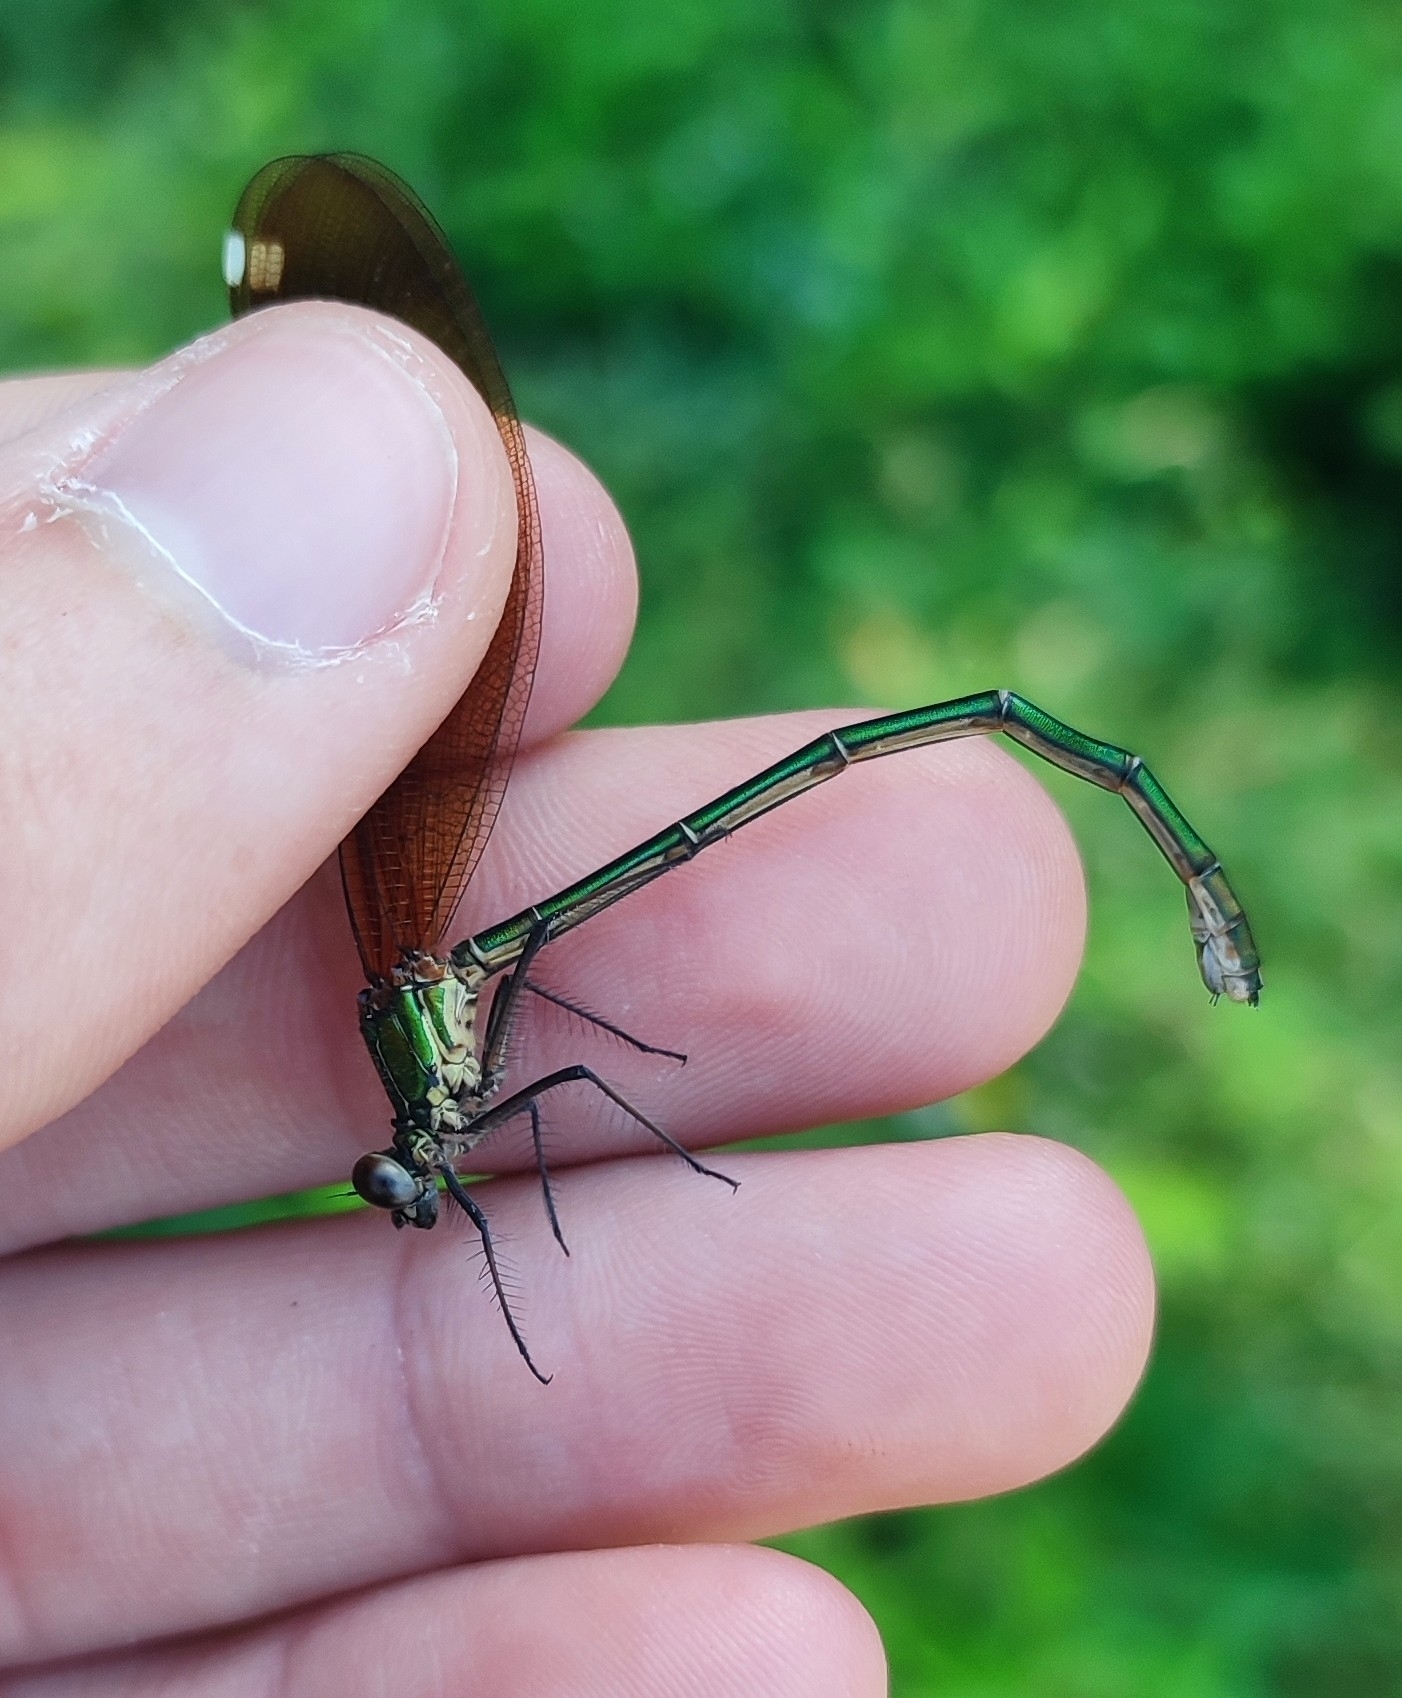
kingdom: Animalia
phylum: Arthropoda
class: Insecta
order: Odonata
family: Calopterygidae
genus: Calopteryx
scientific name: Calopteryx haemorrhoidalis
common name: Copper demoiselle
